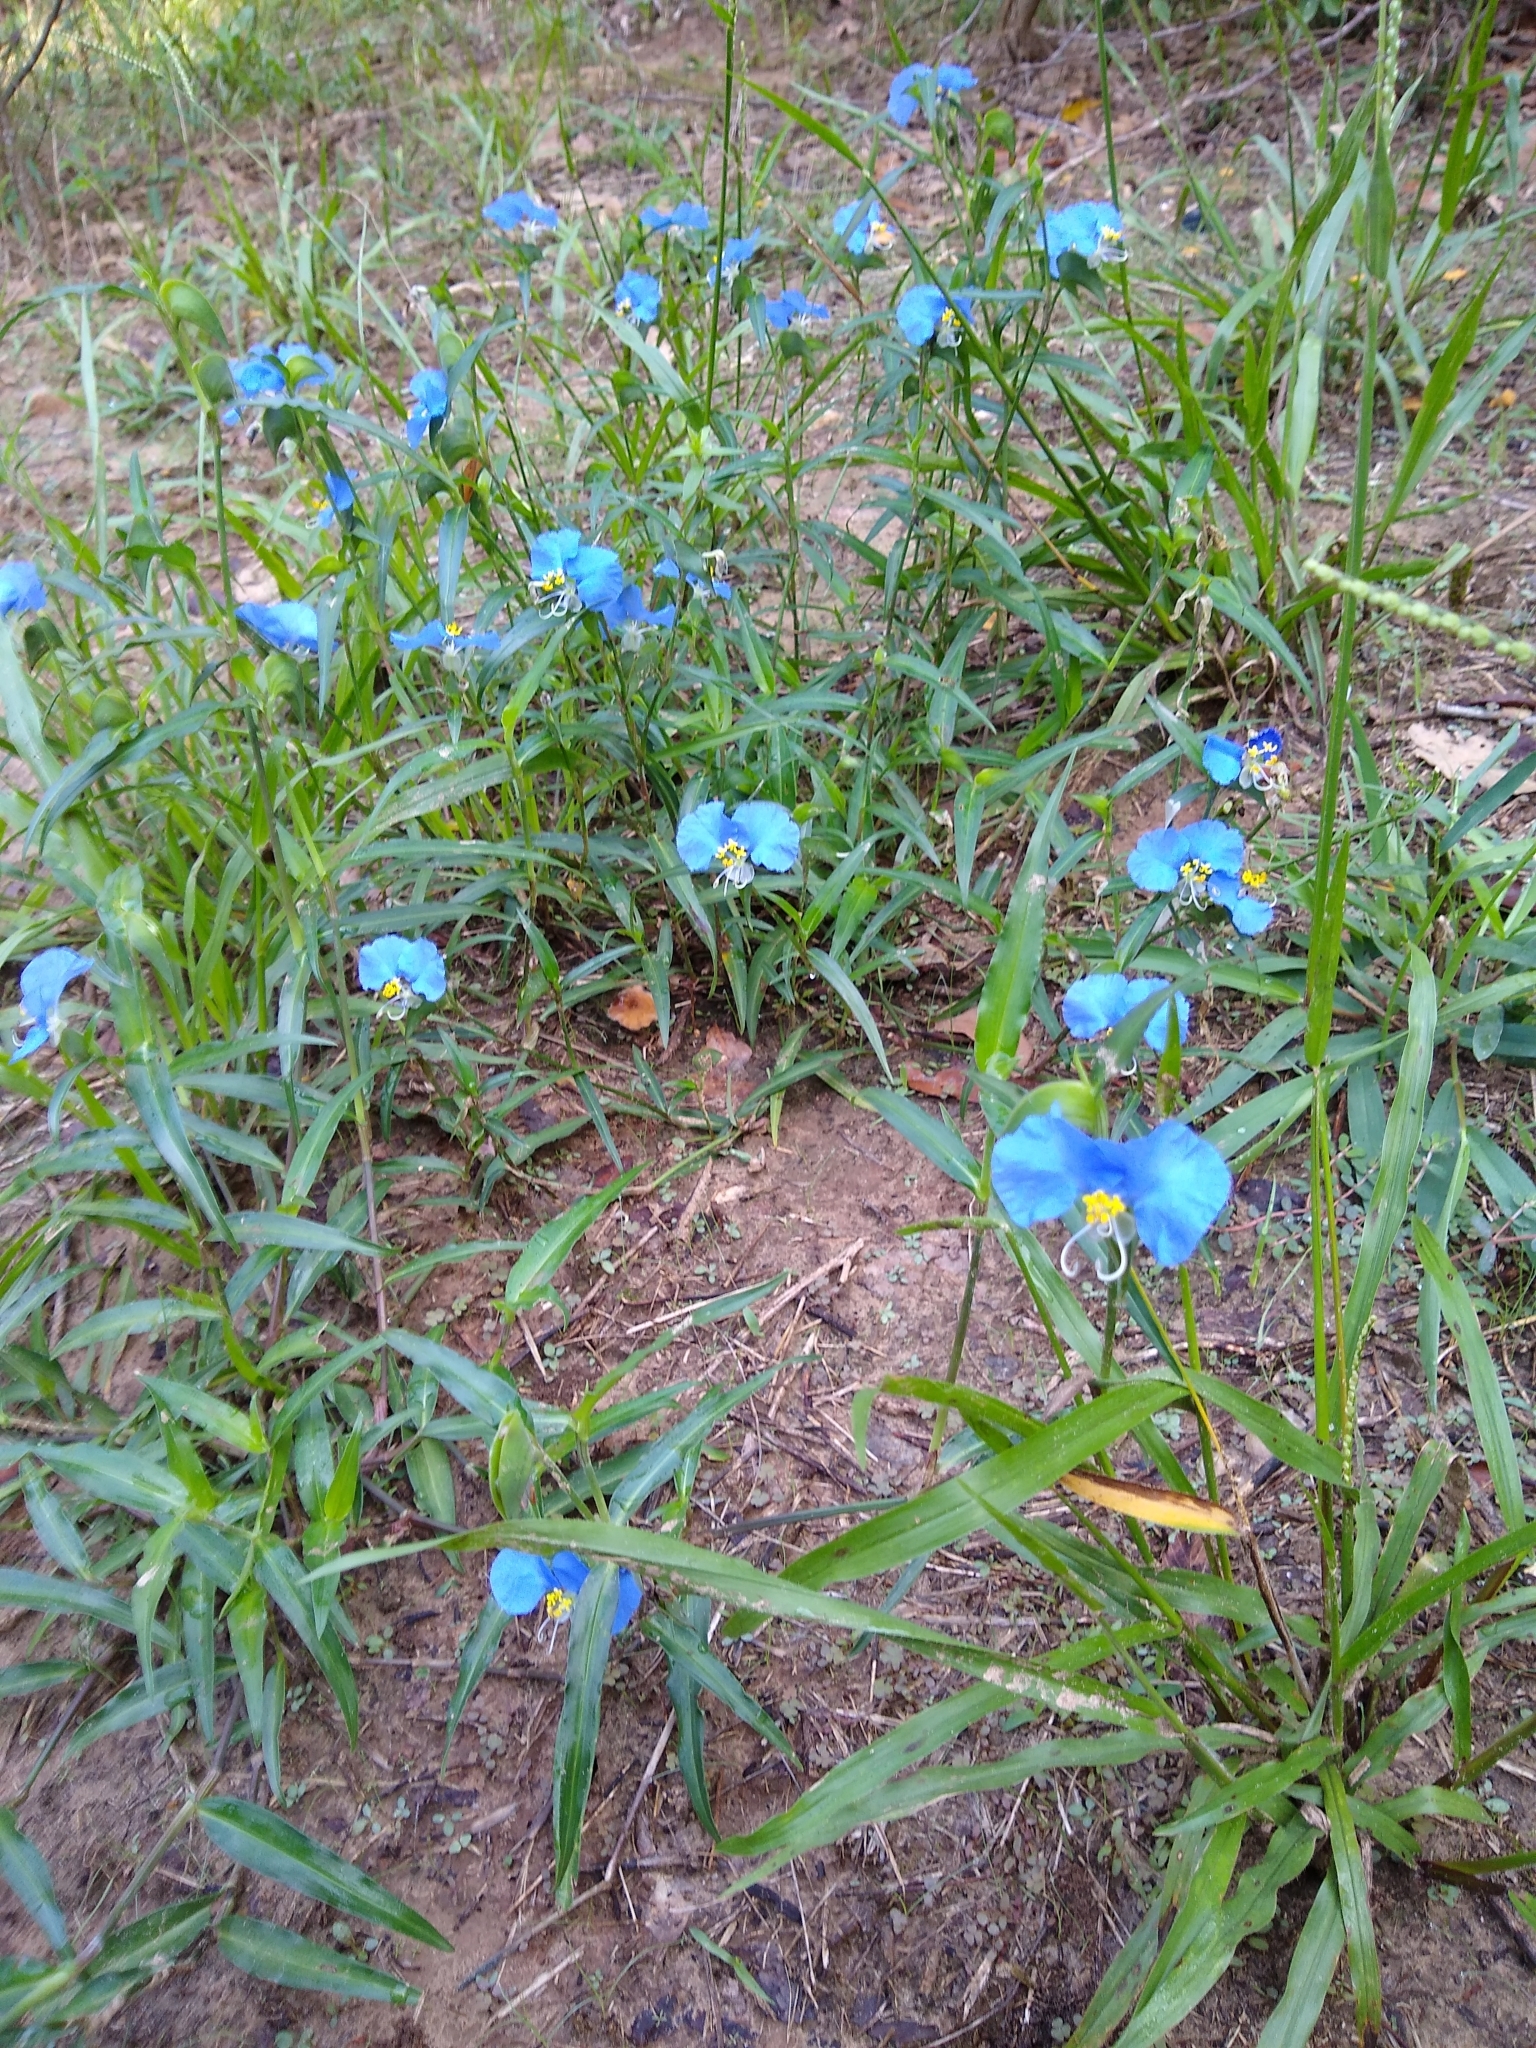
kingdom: Plantae
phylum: Tracheophyta
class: Liliopsida
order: Commelinales
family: Commelinaceae
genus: Commelina
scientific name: Commelina erecta
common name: Blousel blommetjie
